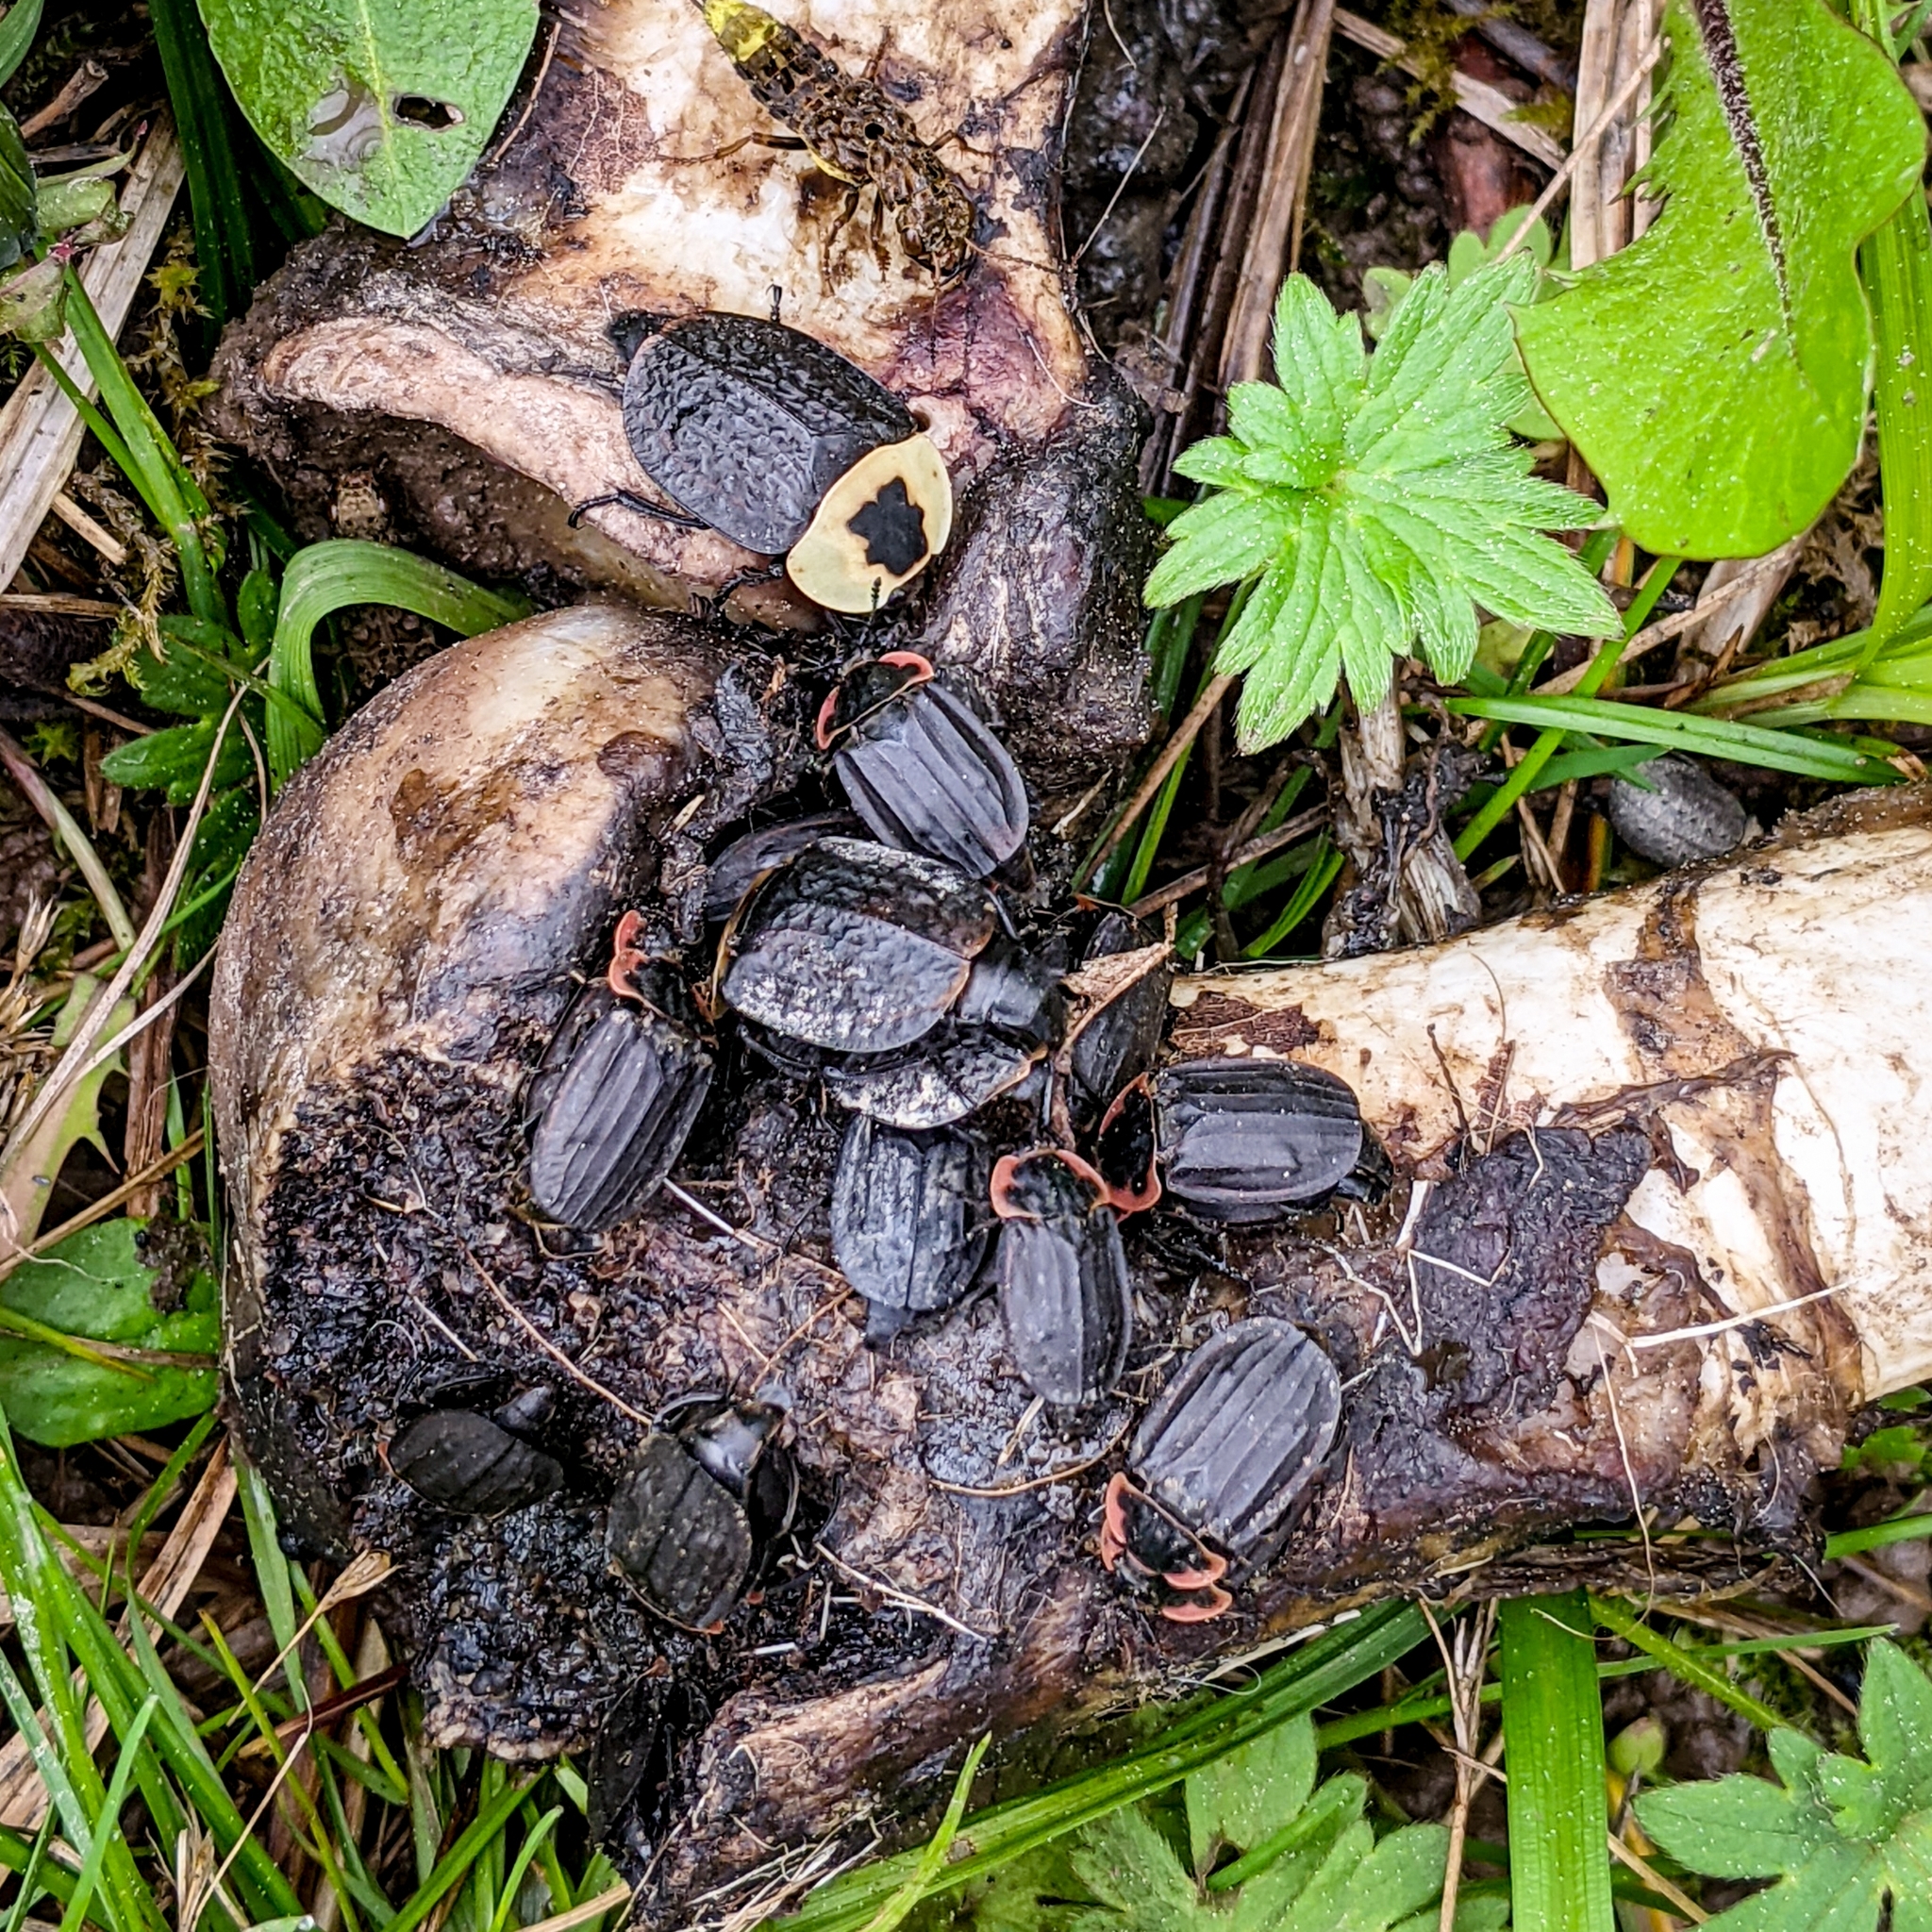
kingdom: Animalia
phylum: Arthropoda
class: Insecta
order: Coleoptera
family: Staphylinidae
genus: Necrophila
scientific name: Necrophila americana
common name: American carrion beetle
